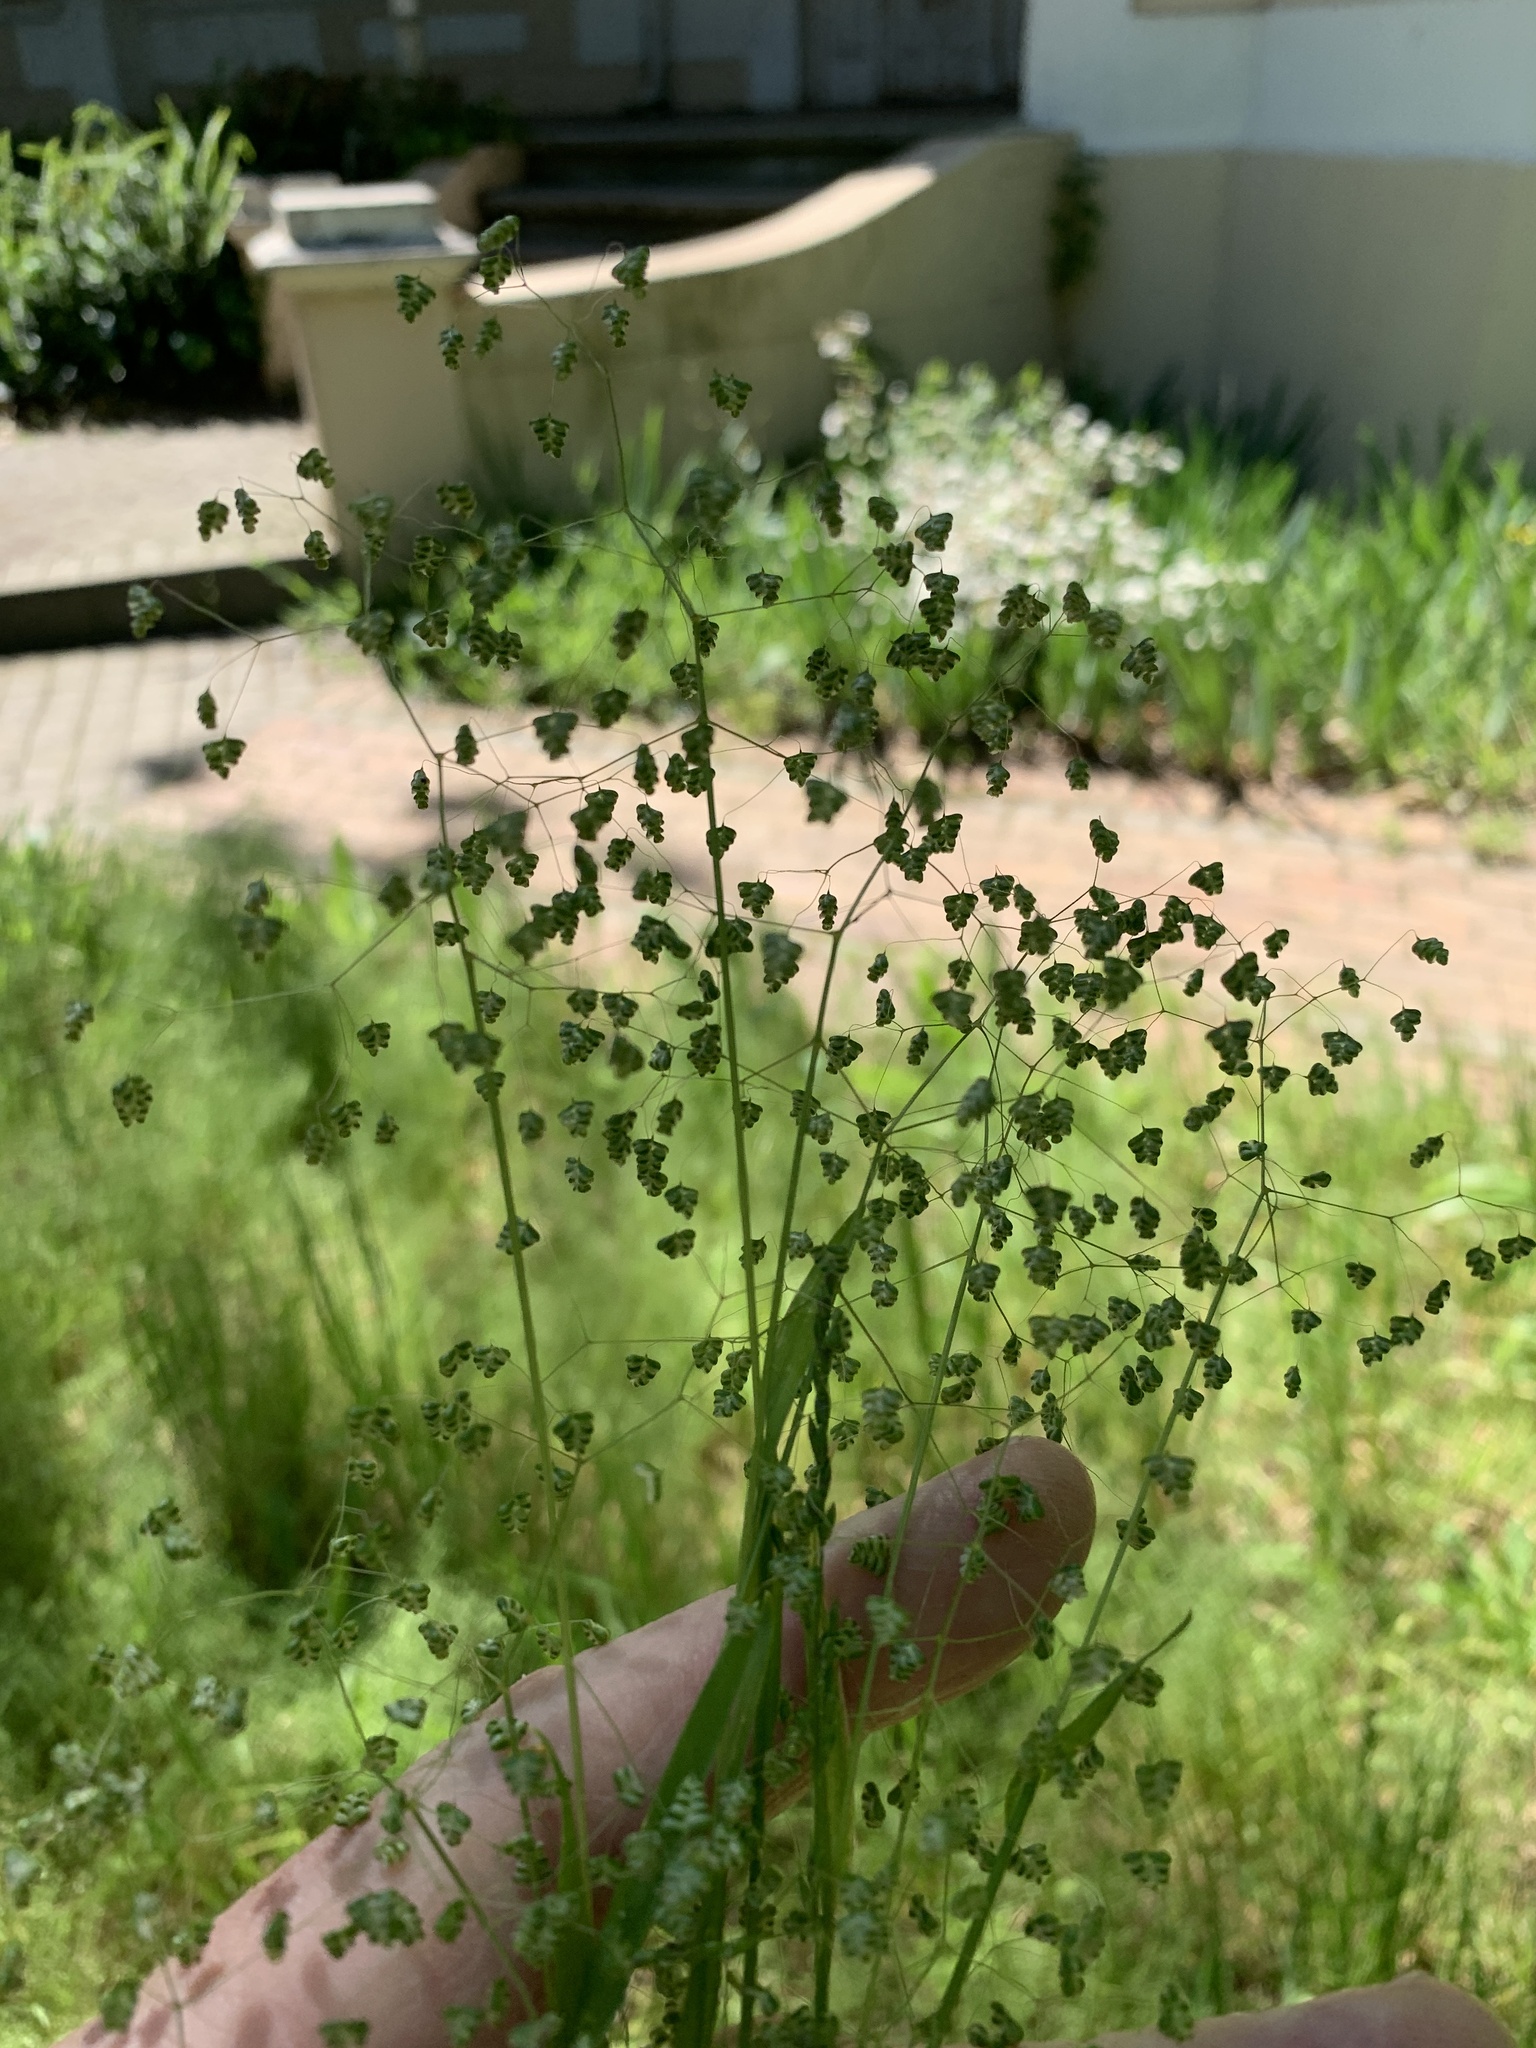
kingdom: Plantae
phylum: Tracheophyta
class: Liliopsida
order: Poales
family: Poaceae
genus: Briza
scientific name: Briza minor
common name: Lesser quaking-grass
